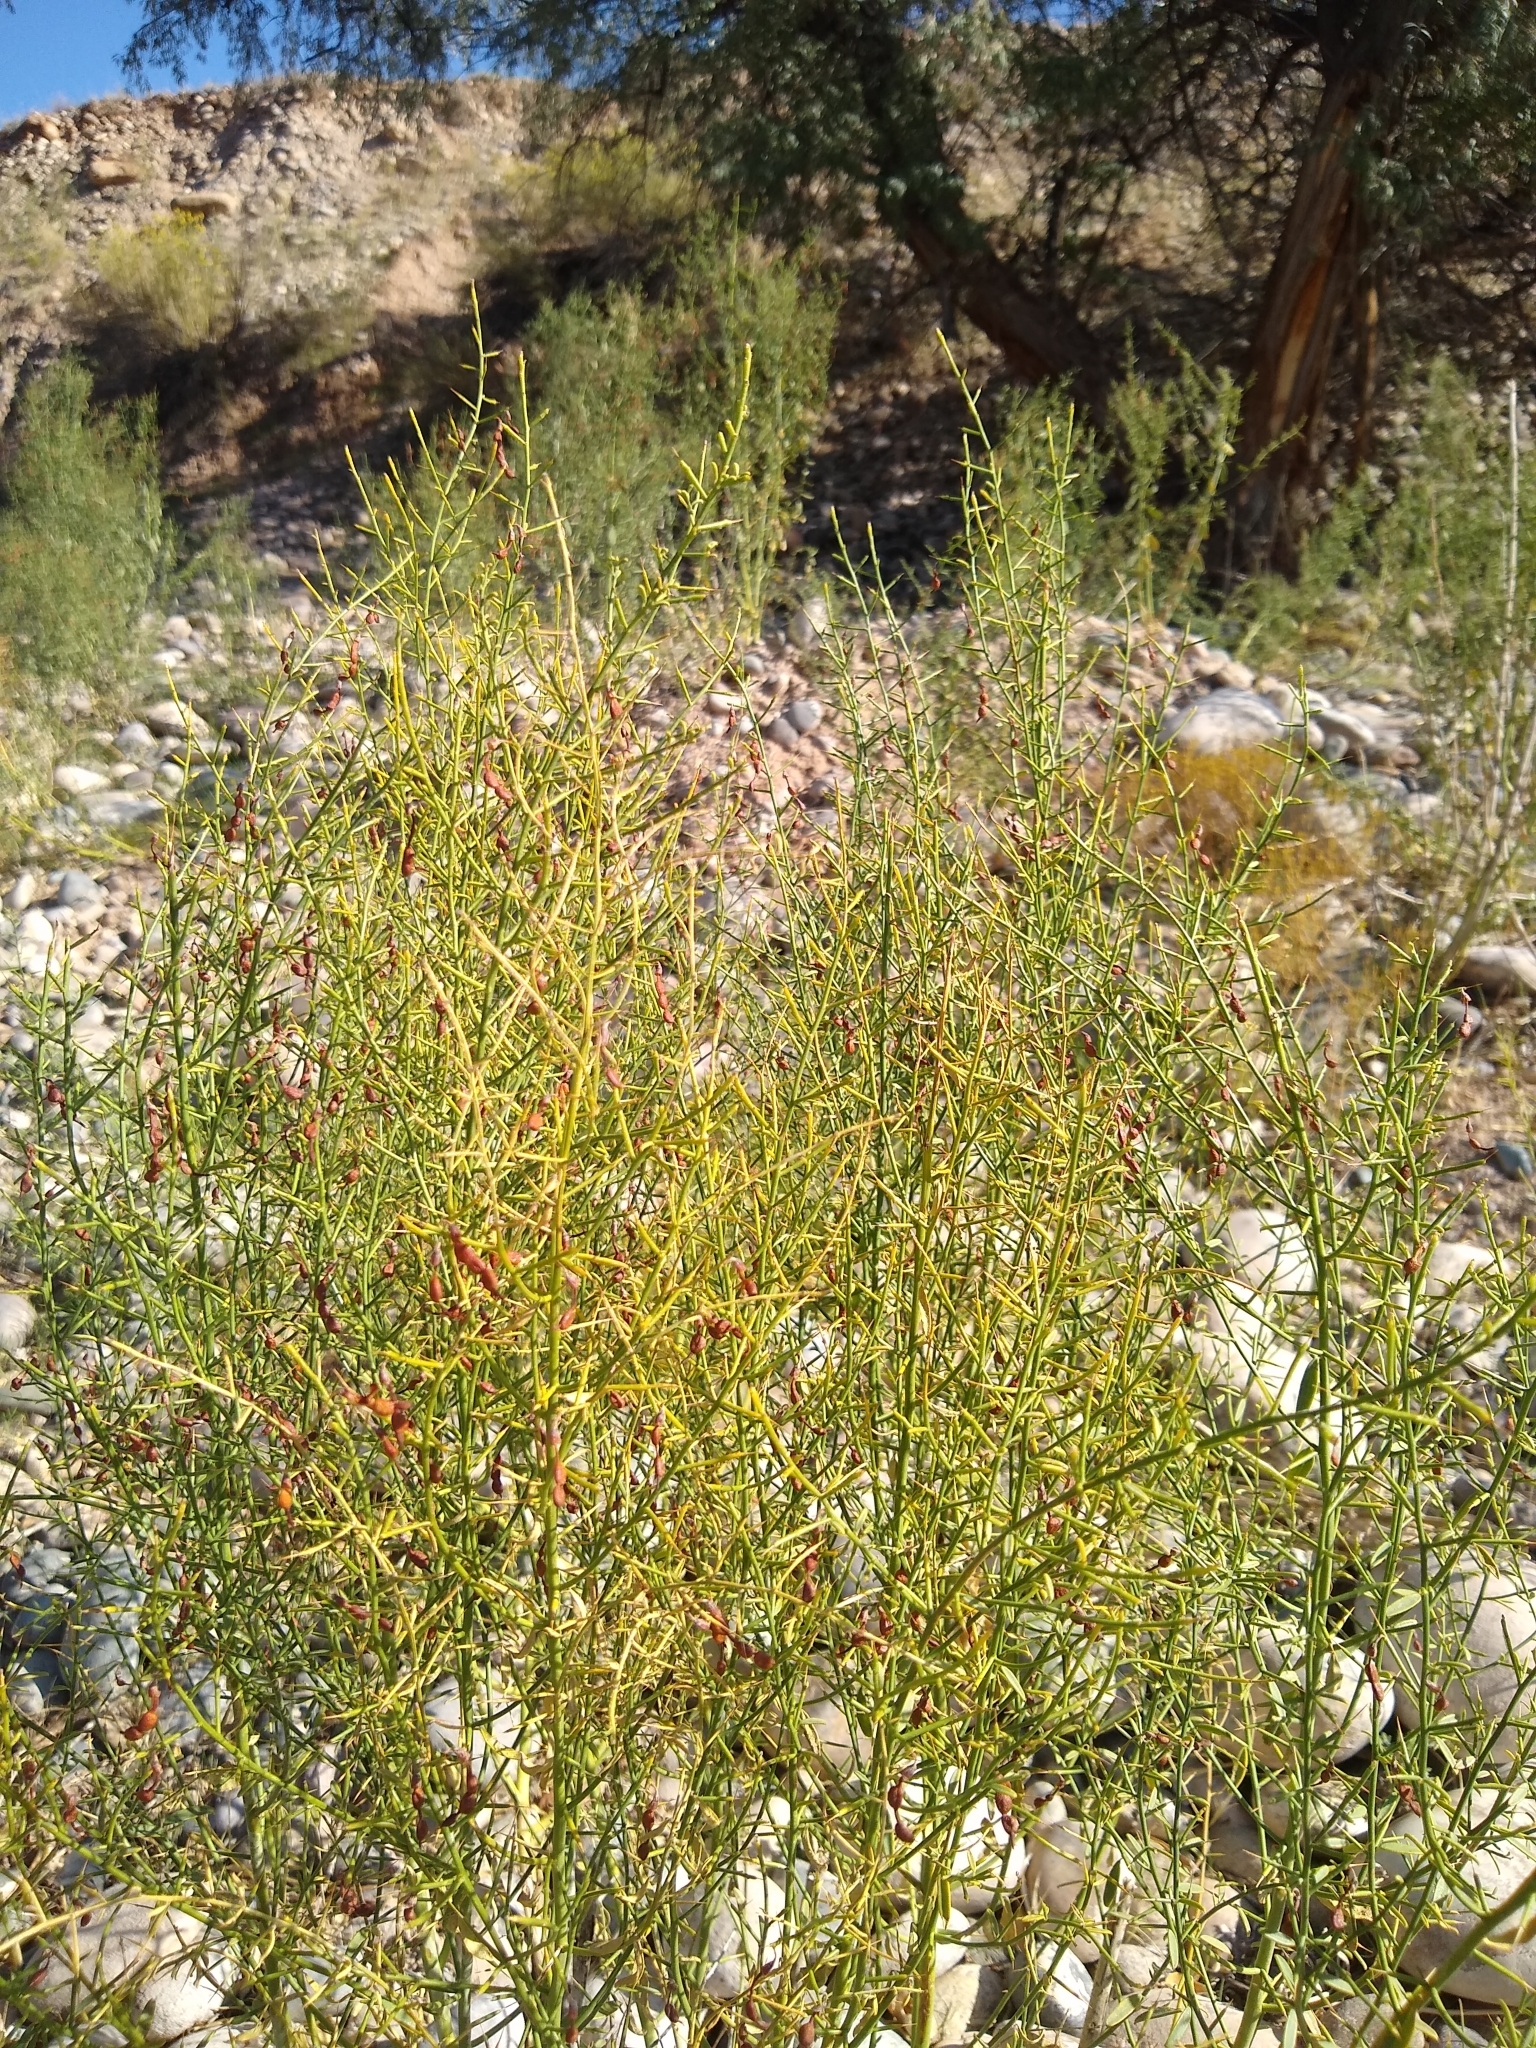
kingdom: Plantae
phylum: Tracheophyta
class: Magnoliopsida
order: Fabales
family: Fabaceae
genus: Alhagi
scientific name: Alhagi maurorum
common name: Camelthorn
